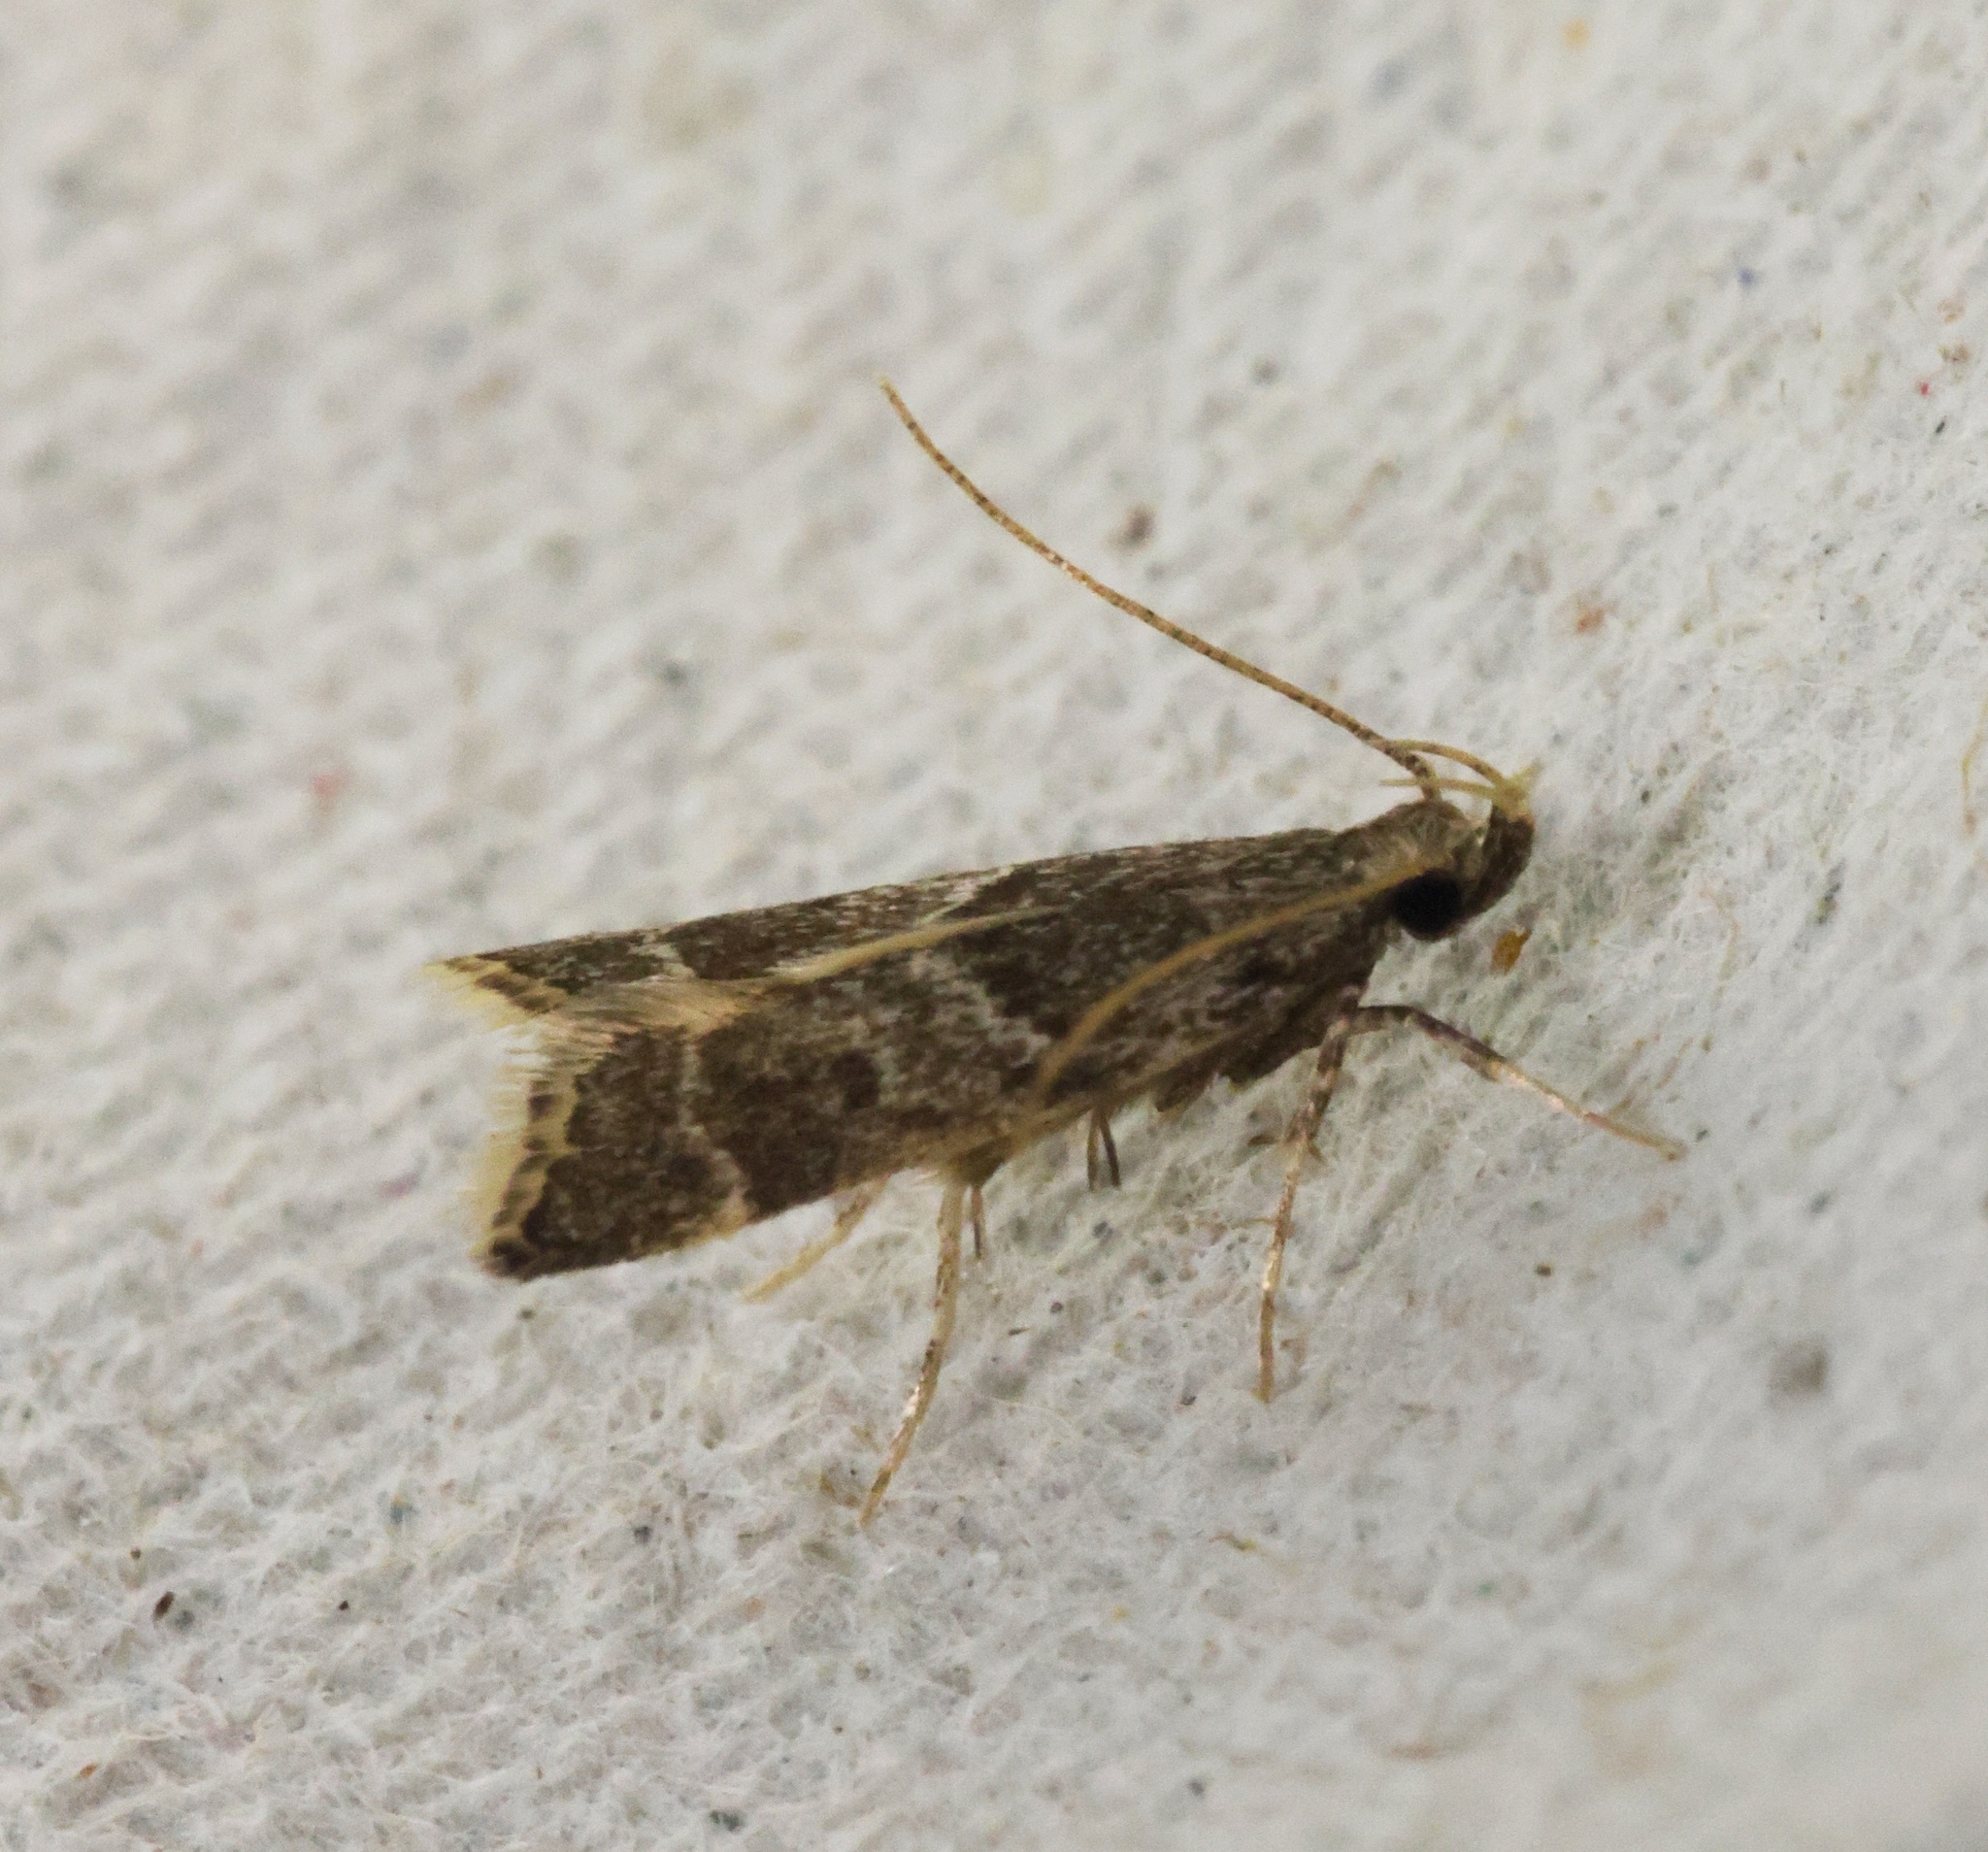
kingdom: Animalia
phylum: Arthropoda
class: Insecta
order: Lepidoptera
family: Lecithoceridae
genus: Athymoris
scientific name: Athymoris martialis
